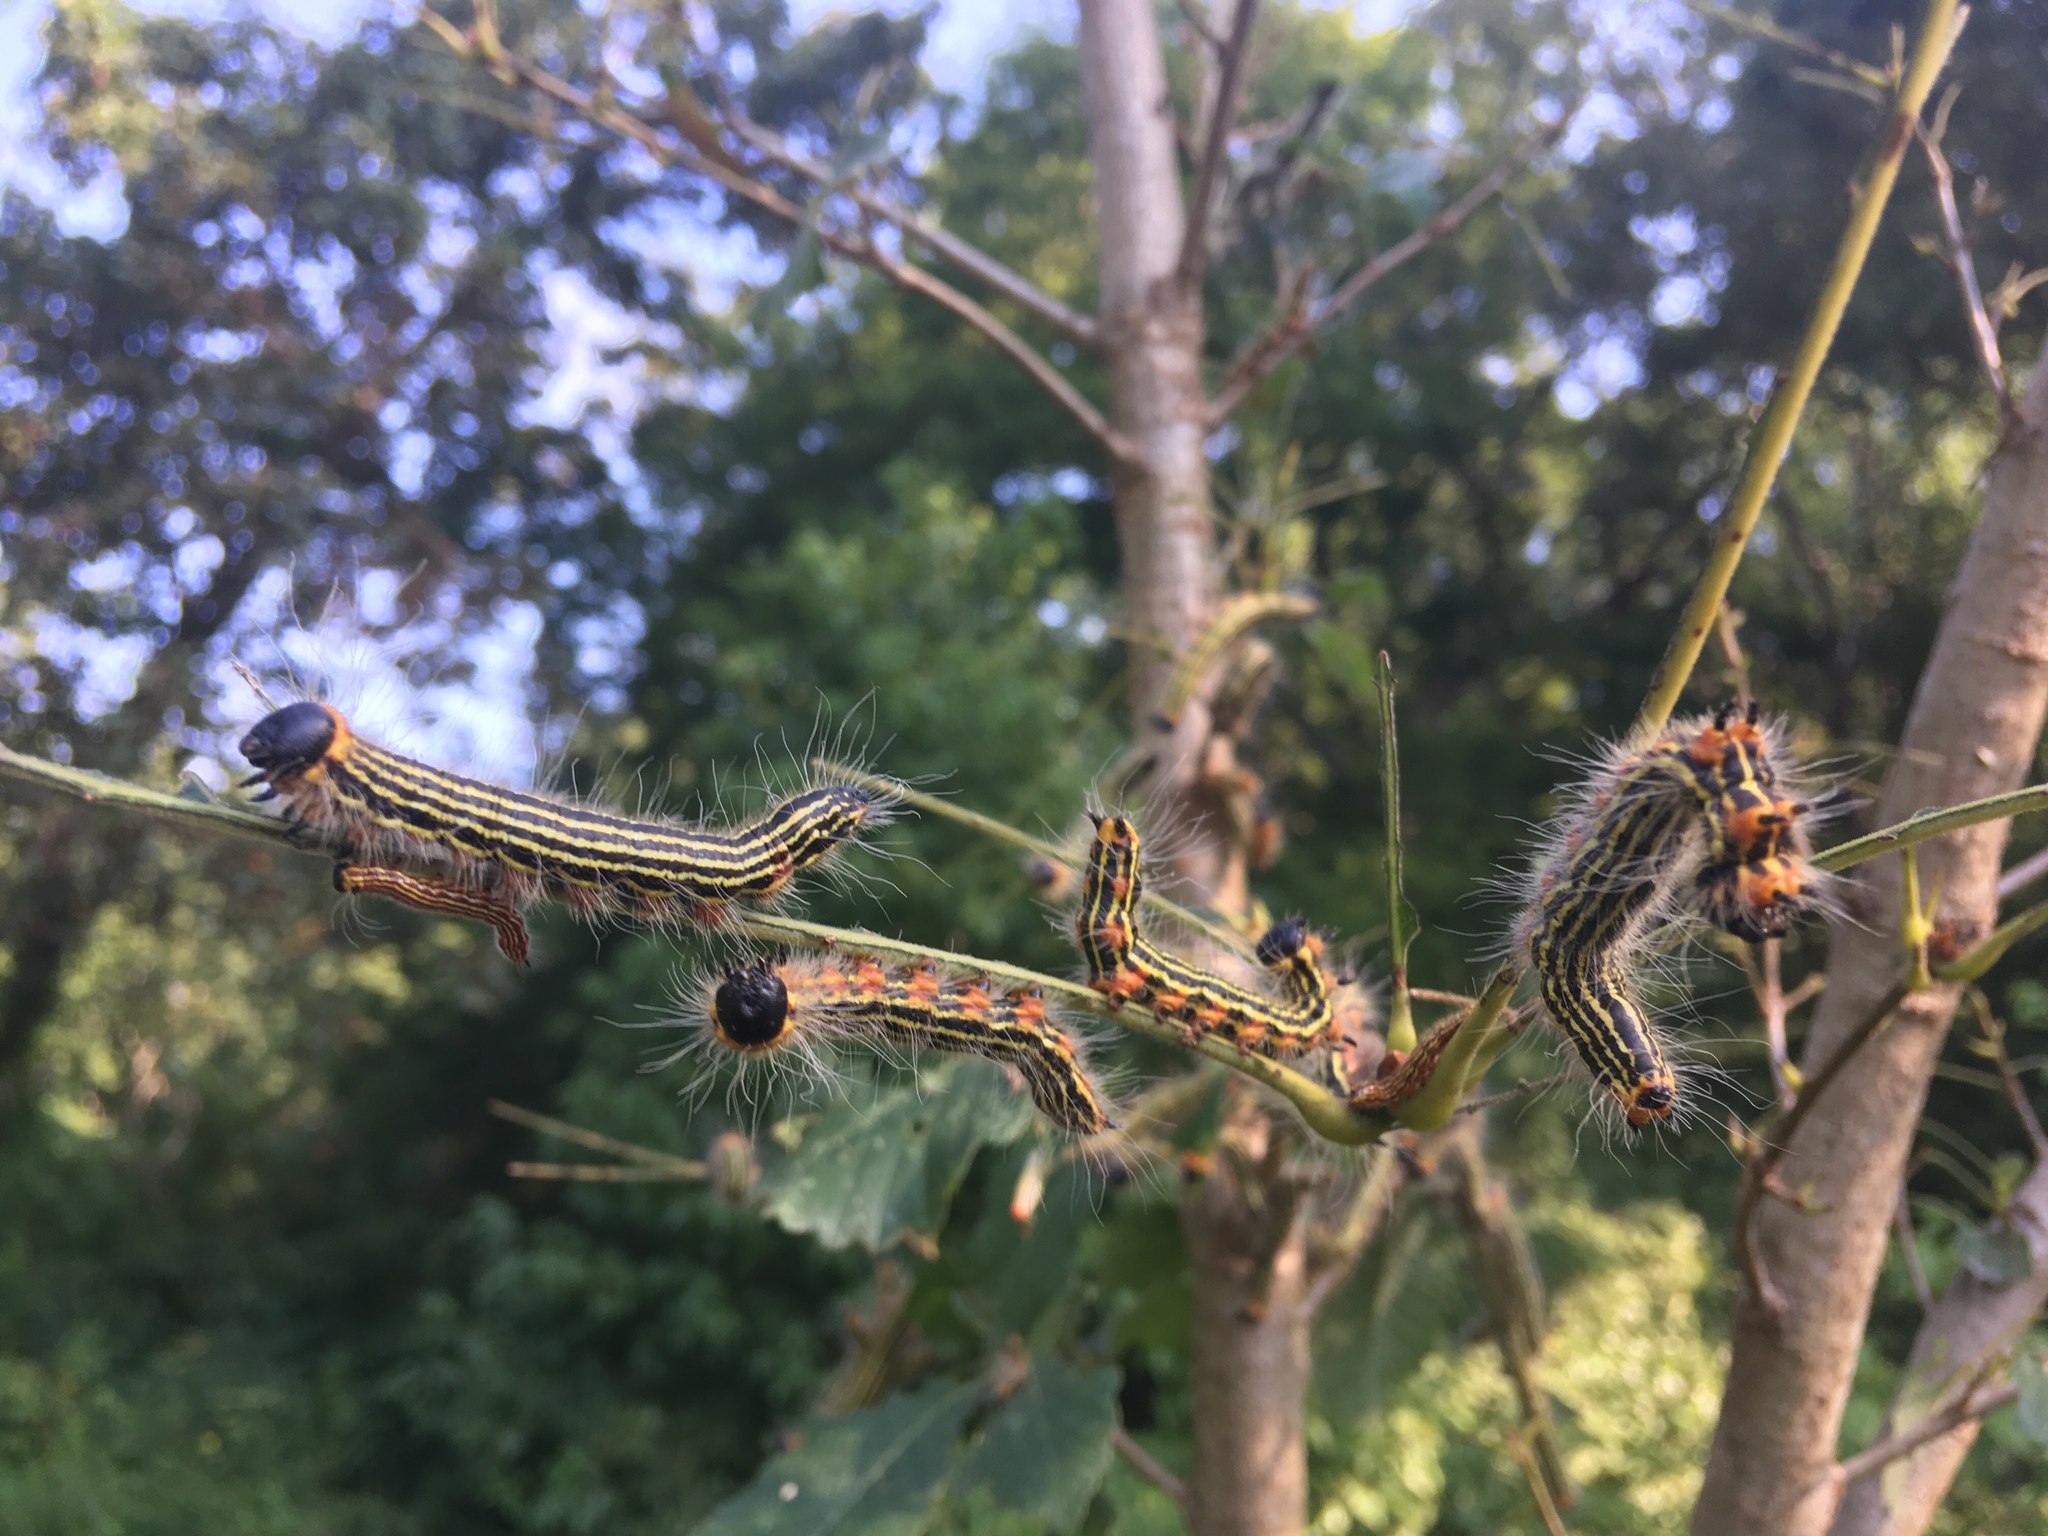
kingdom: Animalia
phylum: Arthropoda
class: Insecta
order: Lepidoptera
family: Notodontidae
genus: Datana
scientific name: Datana ministra
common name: Yellow-necked caterpillar moth
